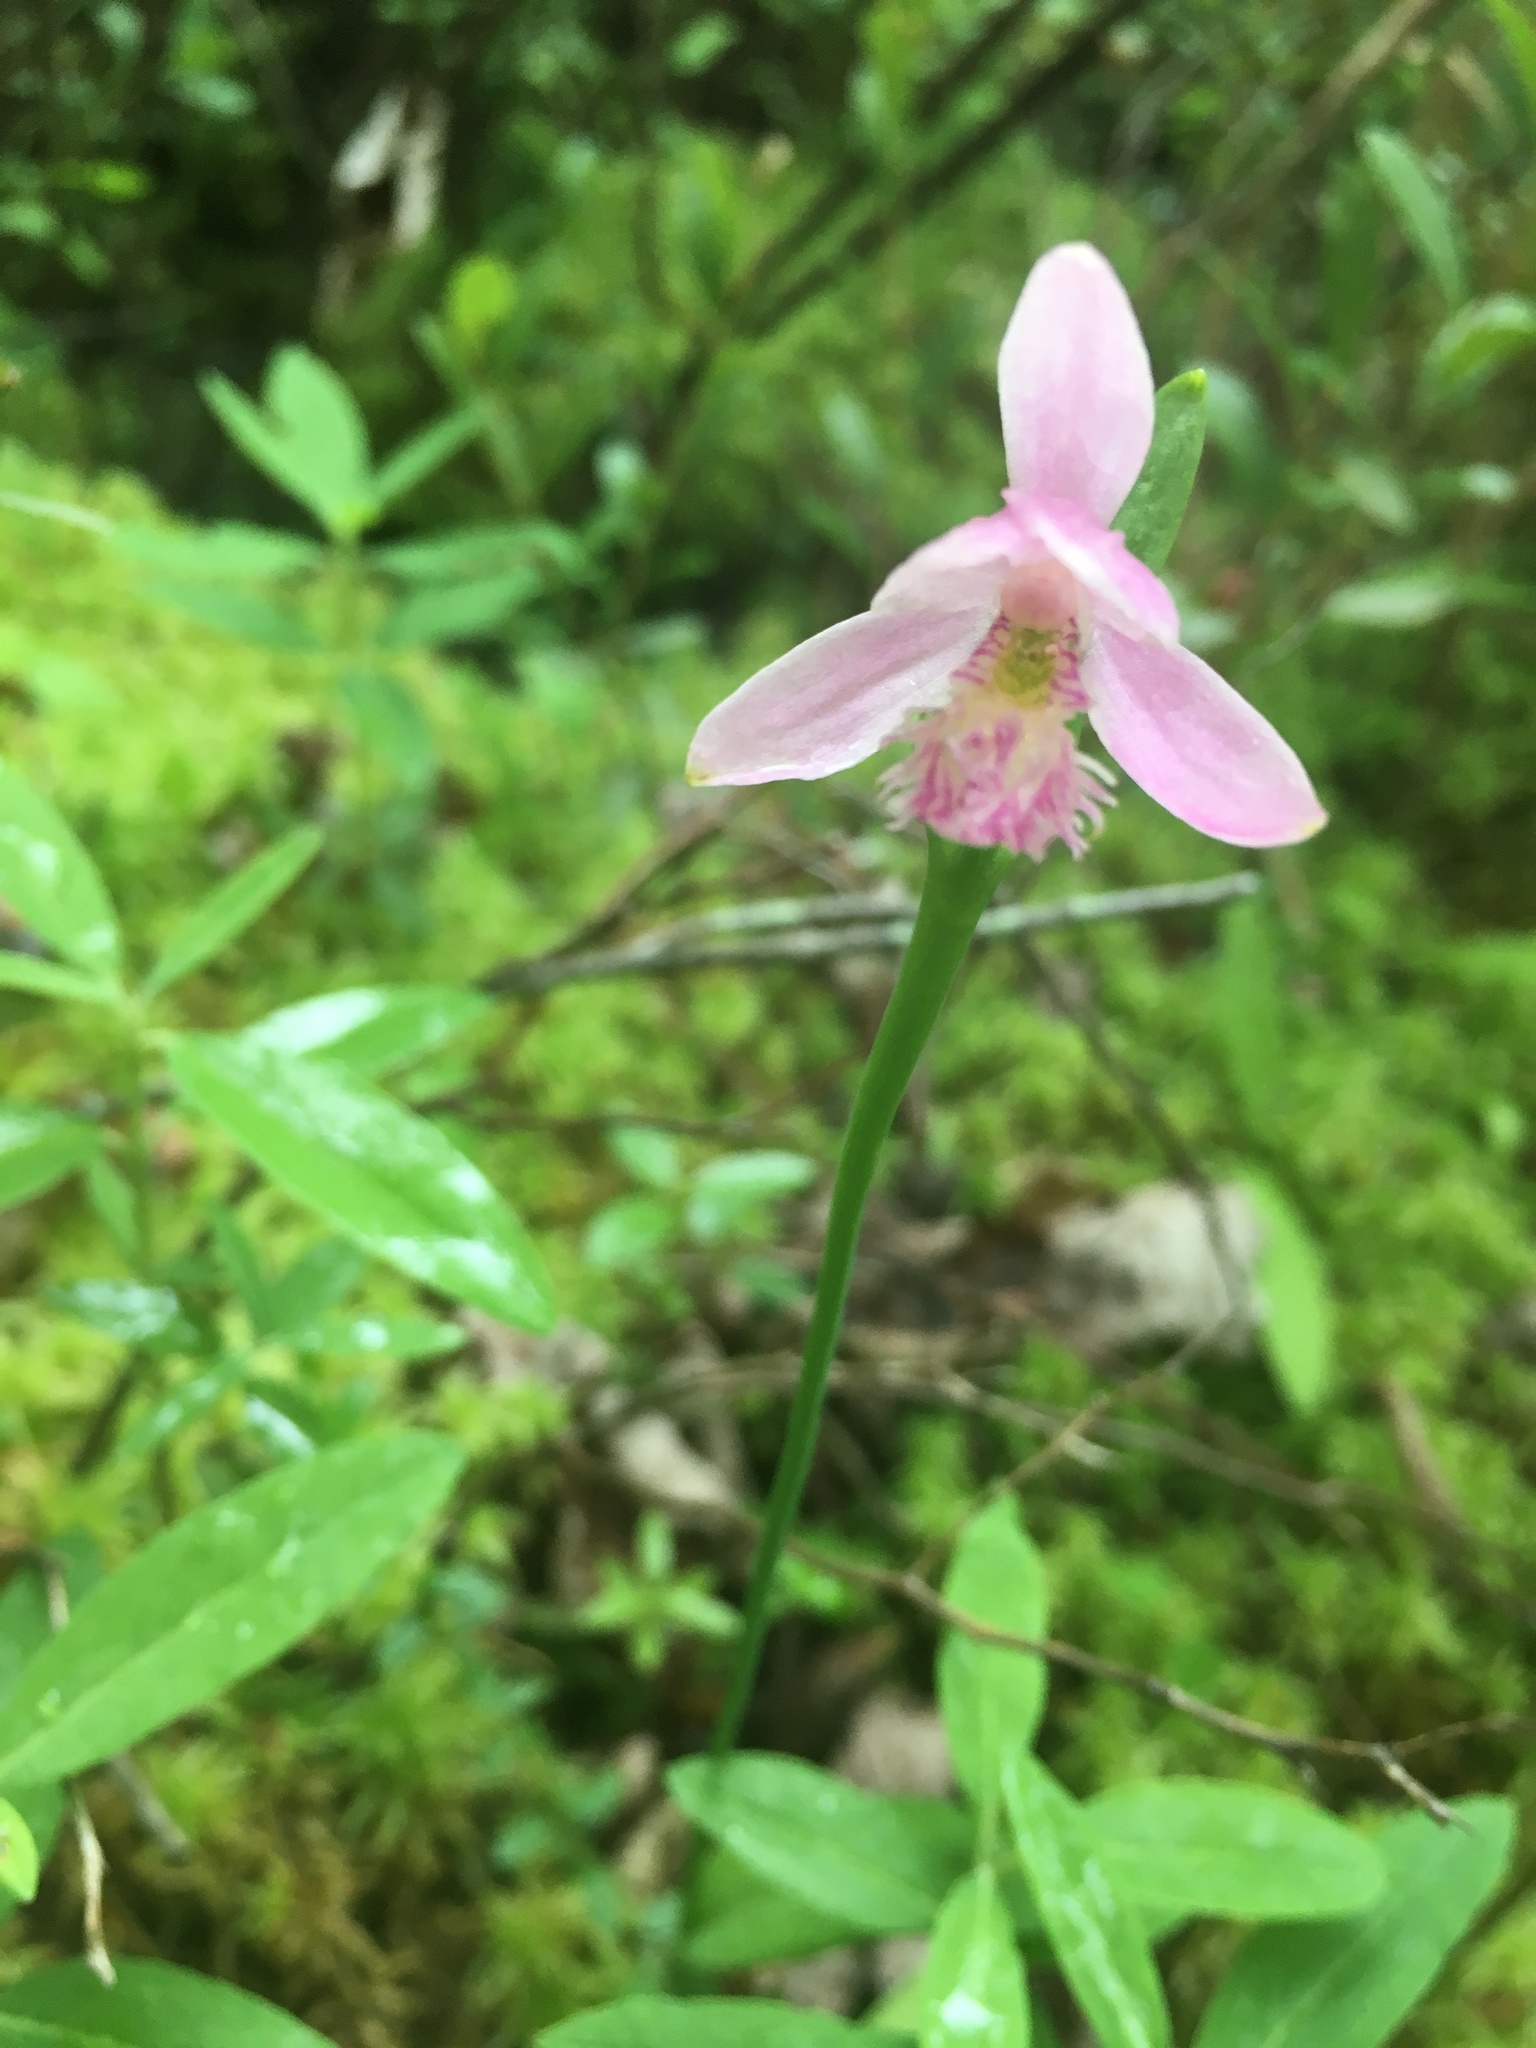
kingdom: Plantae
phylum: Tracheophyta
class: Liliopsida
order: Asparagales
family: Orchidaceae
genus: Pogonia
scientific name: Pogonia ophioglossoides
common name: Rose pogonia
